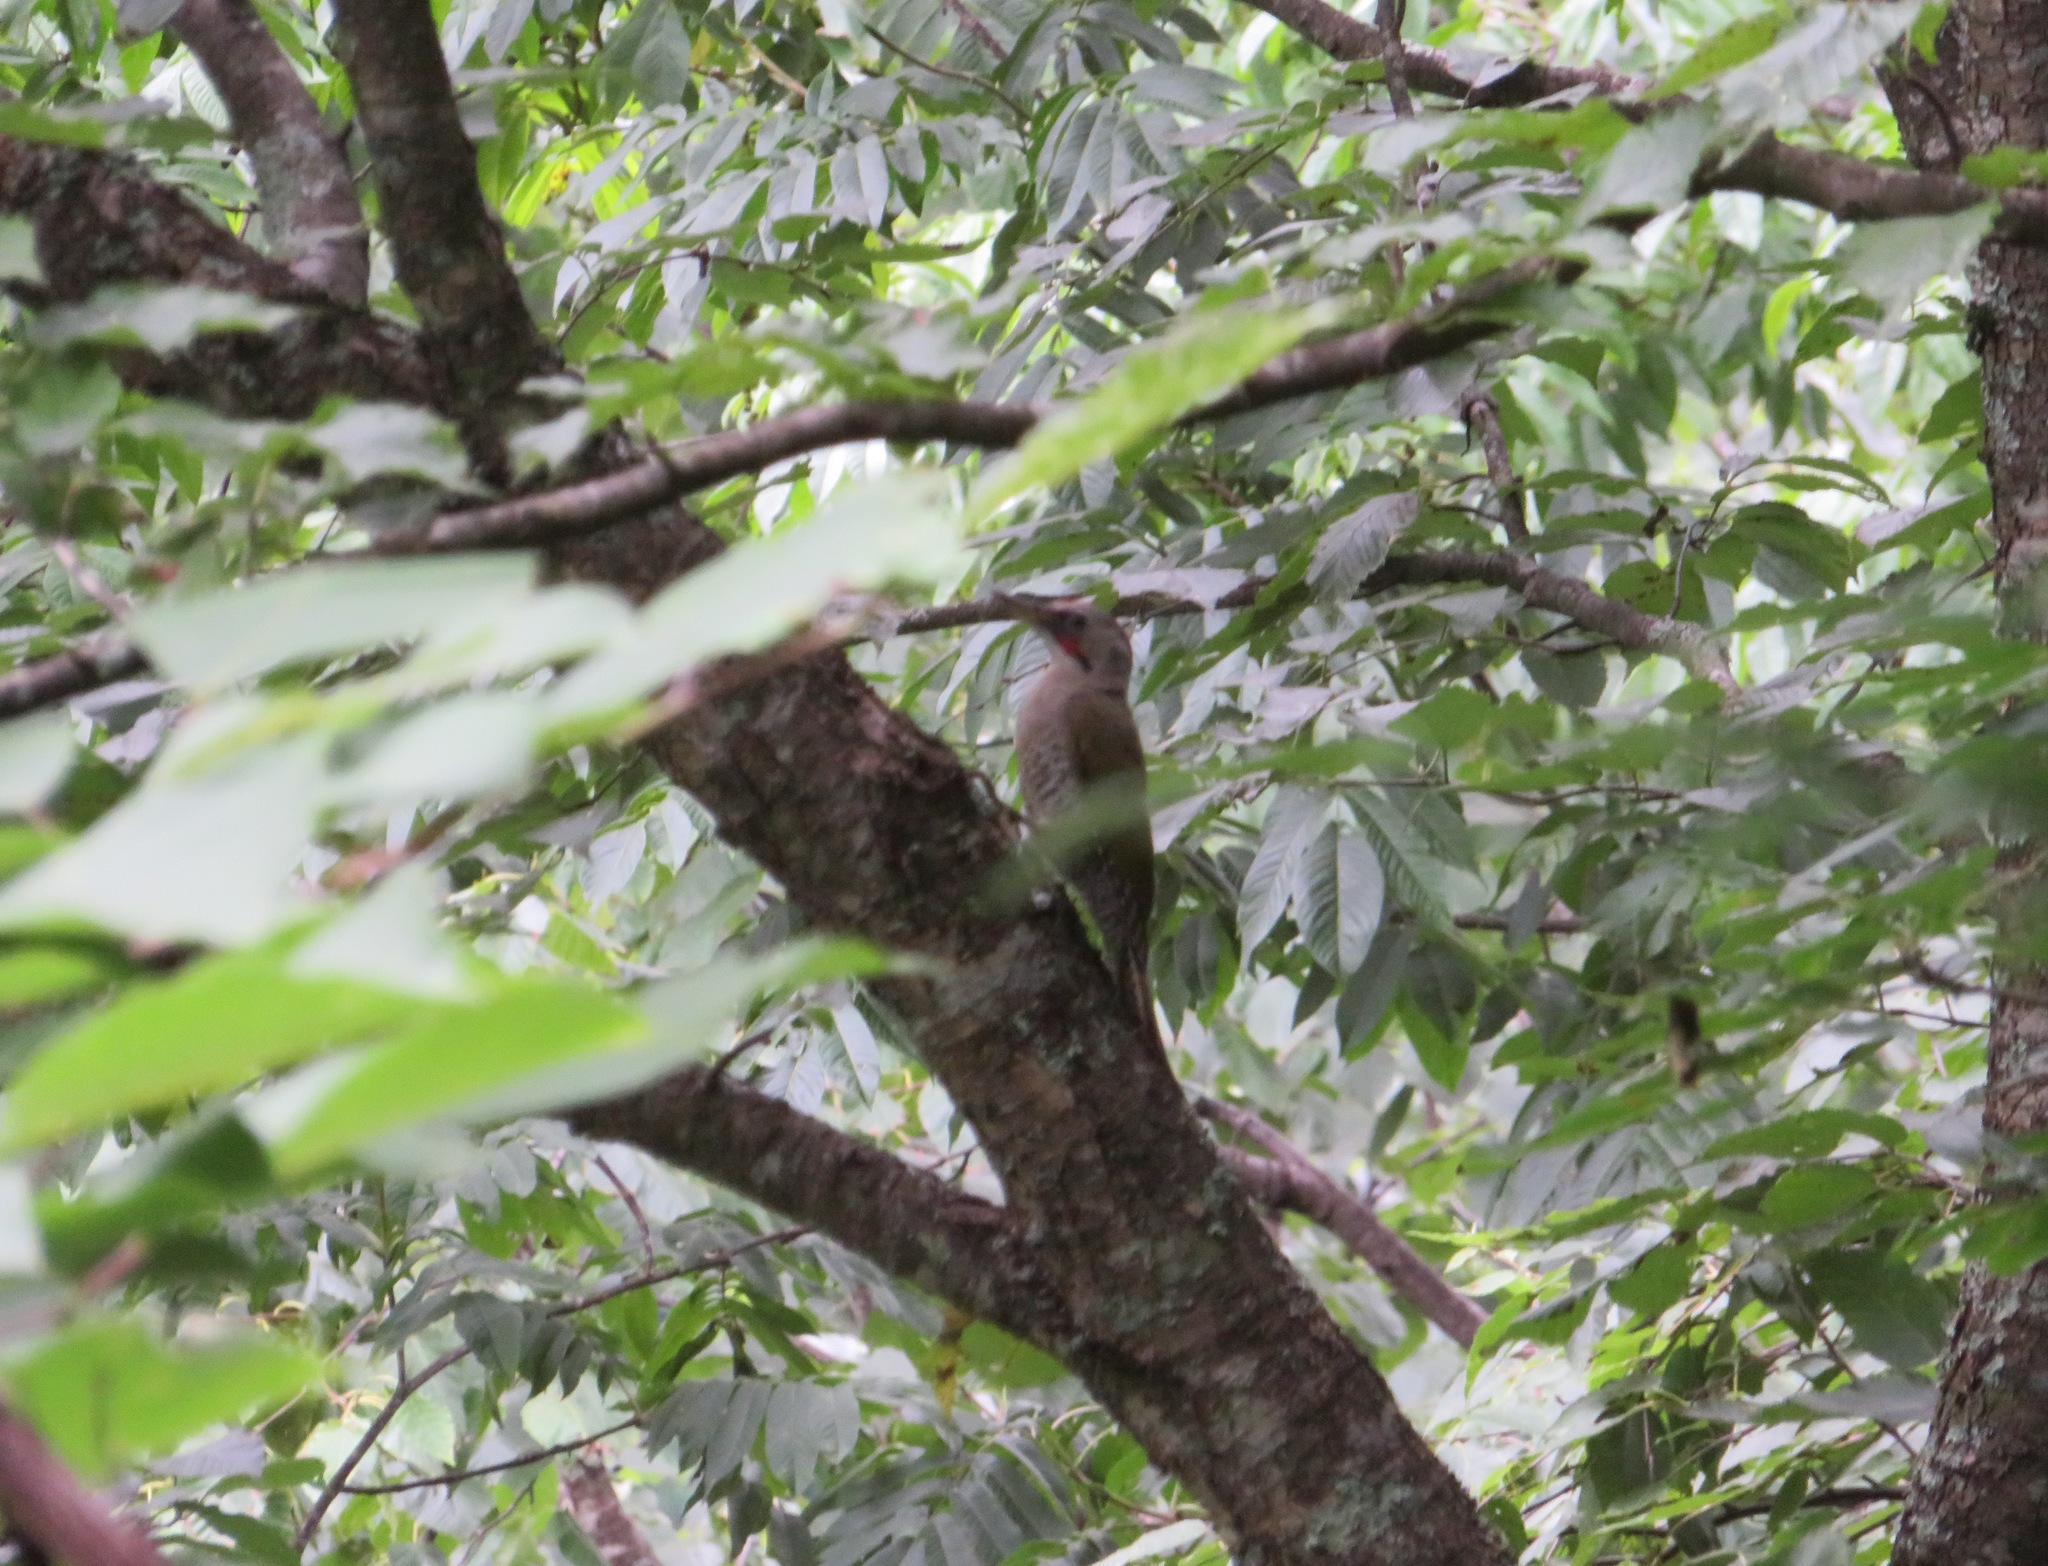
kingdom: Animalia
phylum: Chordata
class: Aves
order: Piciformes
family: Picidae
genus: Picus
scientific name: Picus awokera
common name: Japanese green woodpecker
